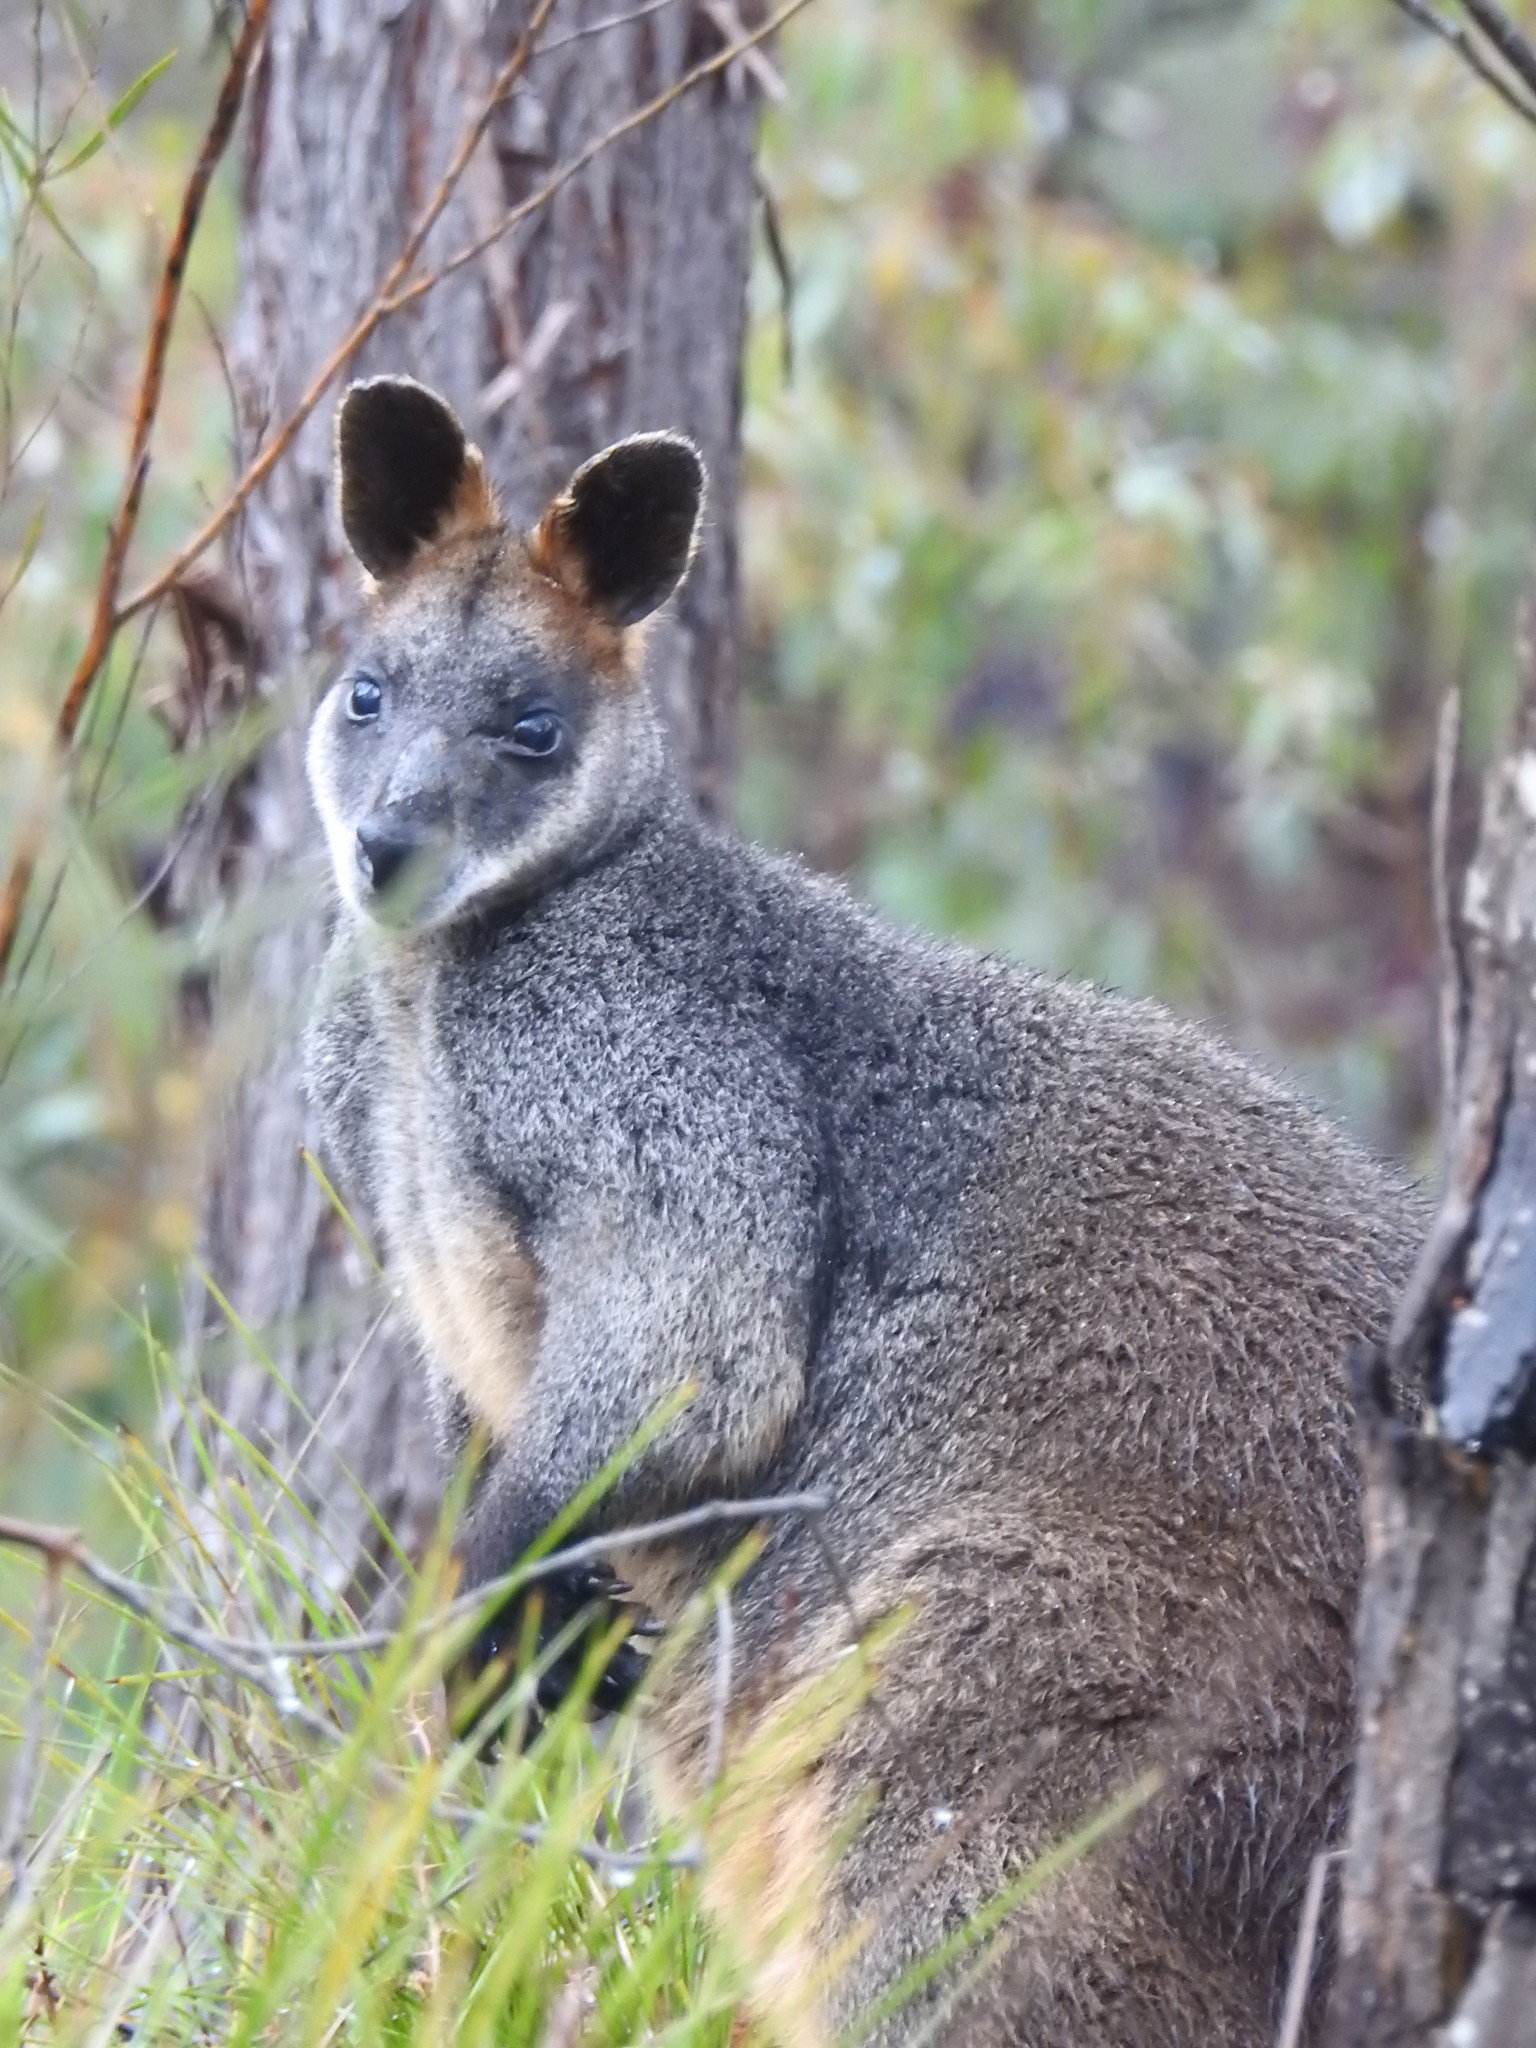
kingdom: Animalia
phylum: Chordata
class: Mammalia
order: Diprotodontia
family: Macropodidae
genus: Wallabia
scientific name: Wallabia bicolor
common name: Swamp wallaby
